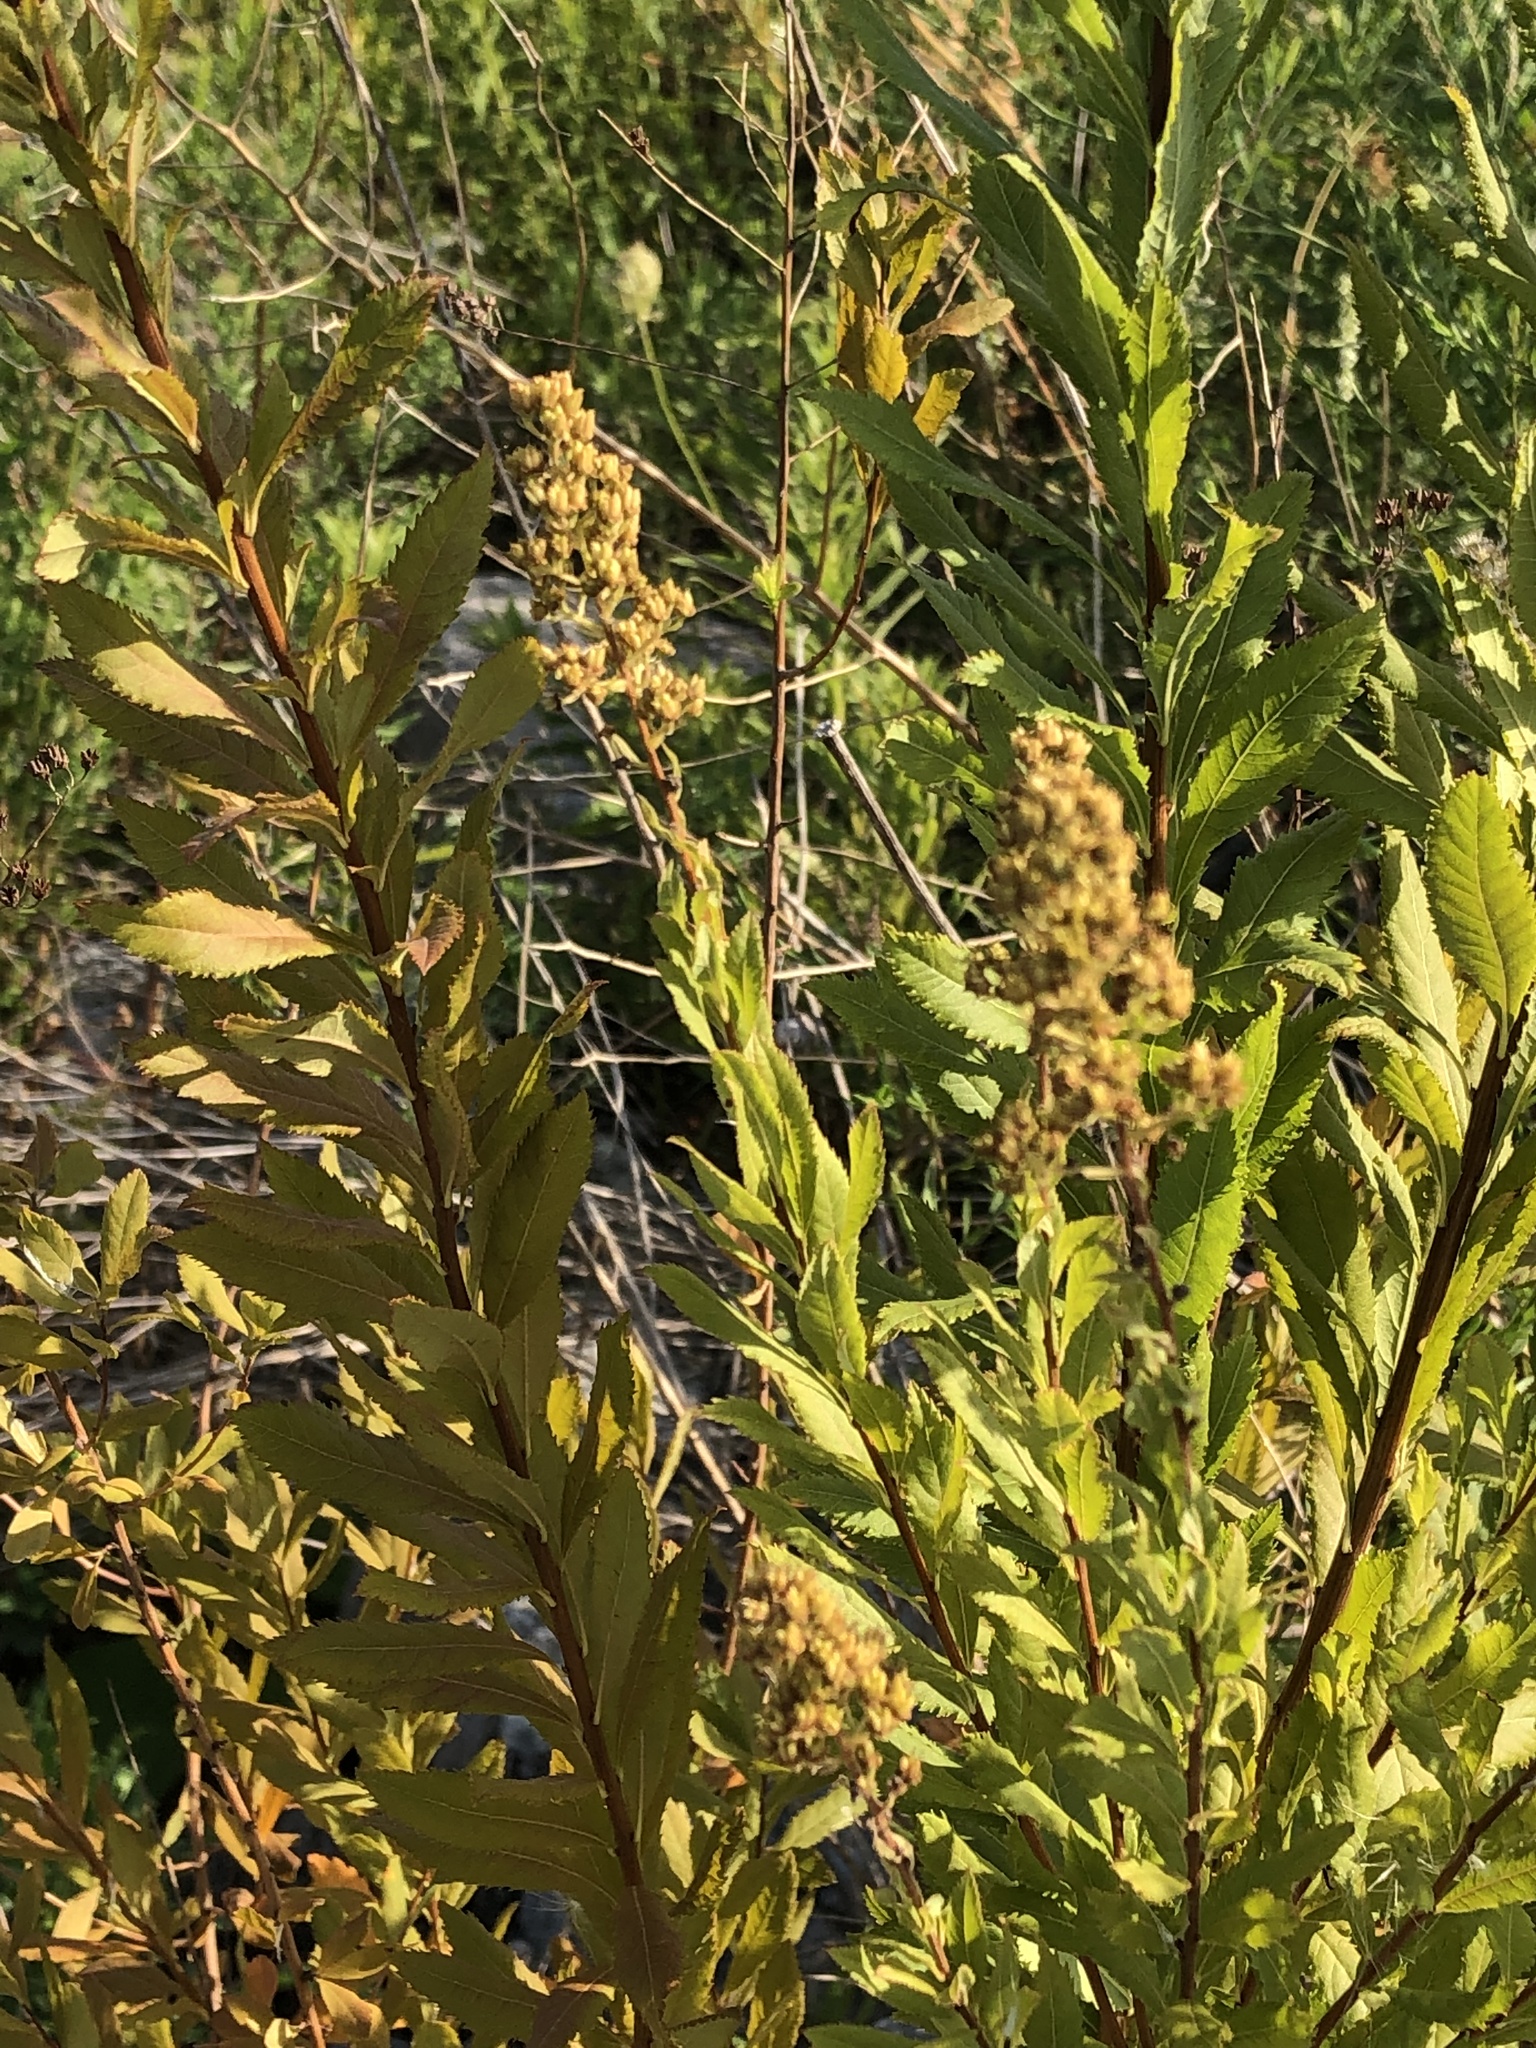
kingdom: Plantae
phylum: Tracheophyta
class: Magnoliopsida
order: Rosales
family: Rosaceae
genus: Spiraea
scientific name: Spiraea alba
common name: Pale bridewort
